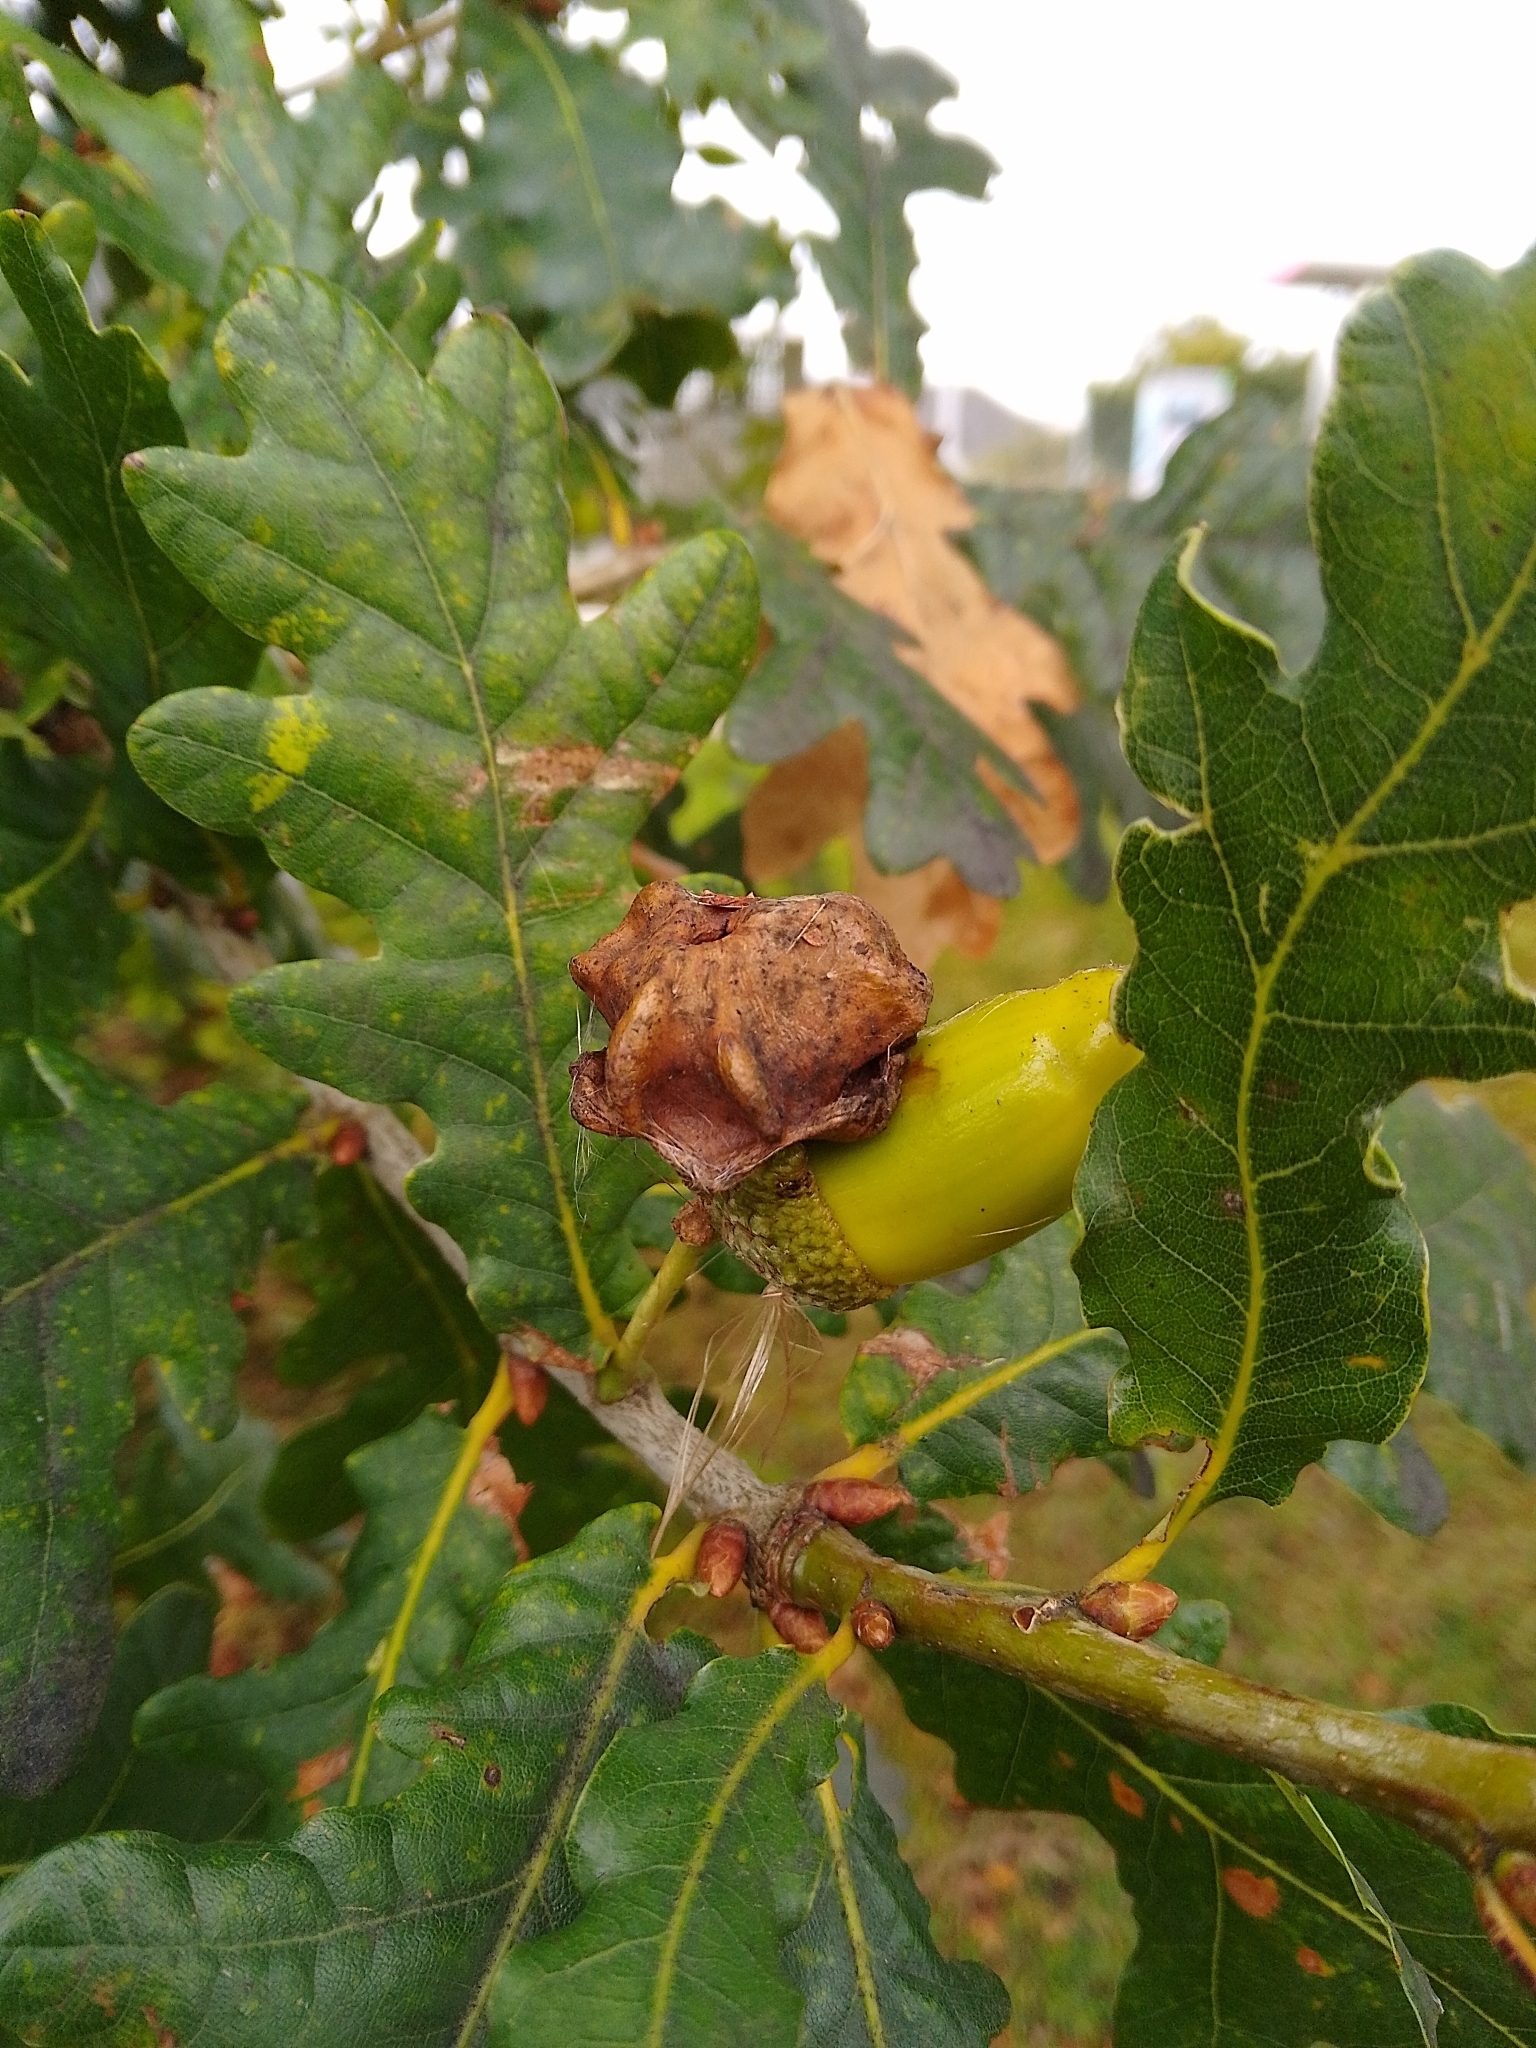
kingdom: Animalia
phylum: Arthropoda
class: Insecta
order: Hymenoptera
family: Cynipidae
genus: Andricus
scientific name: Andricus quercuscalicis
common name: Knopper gall
